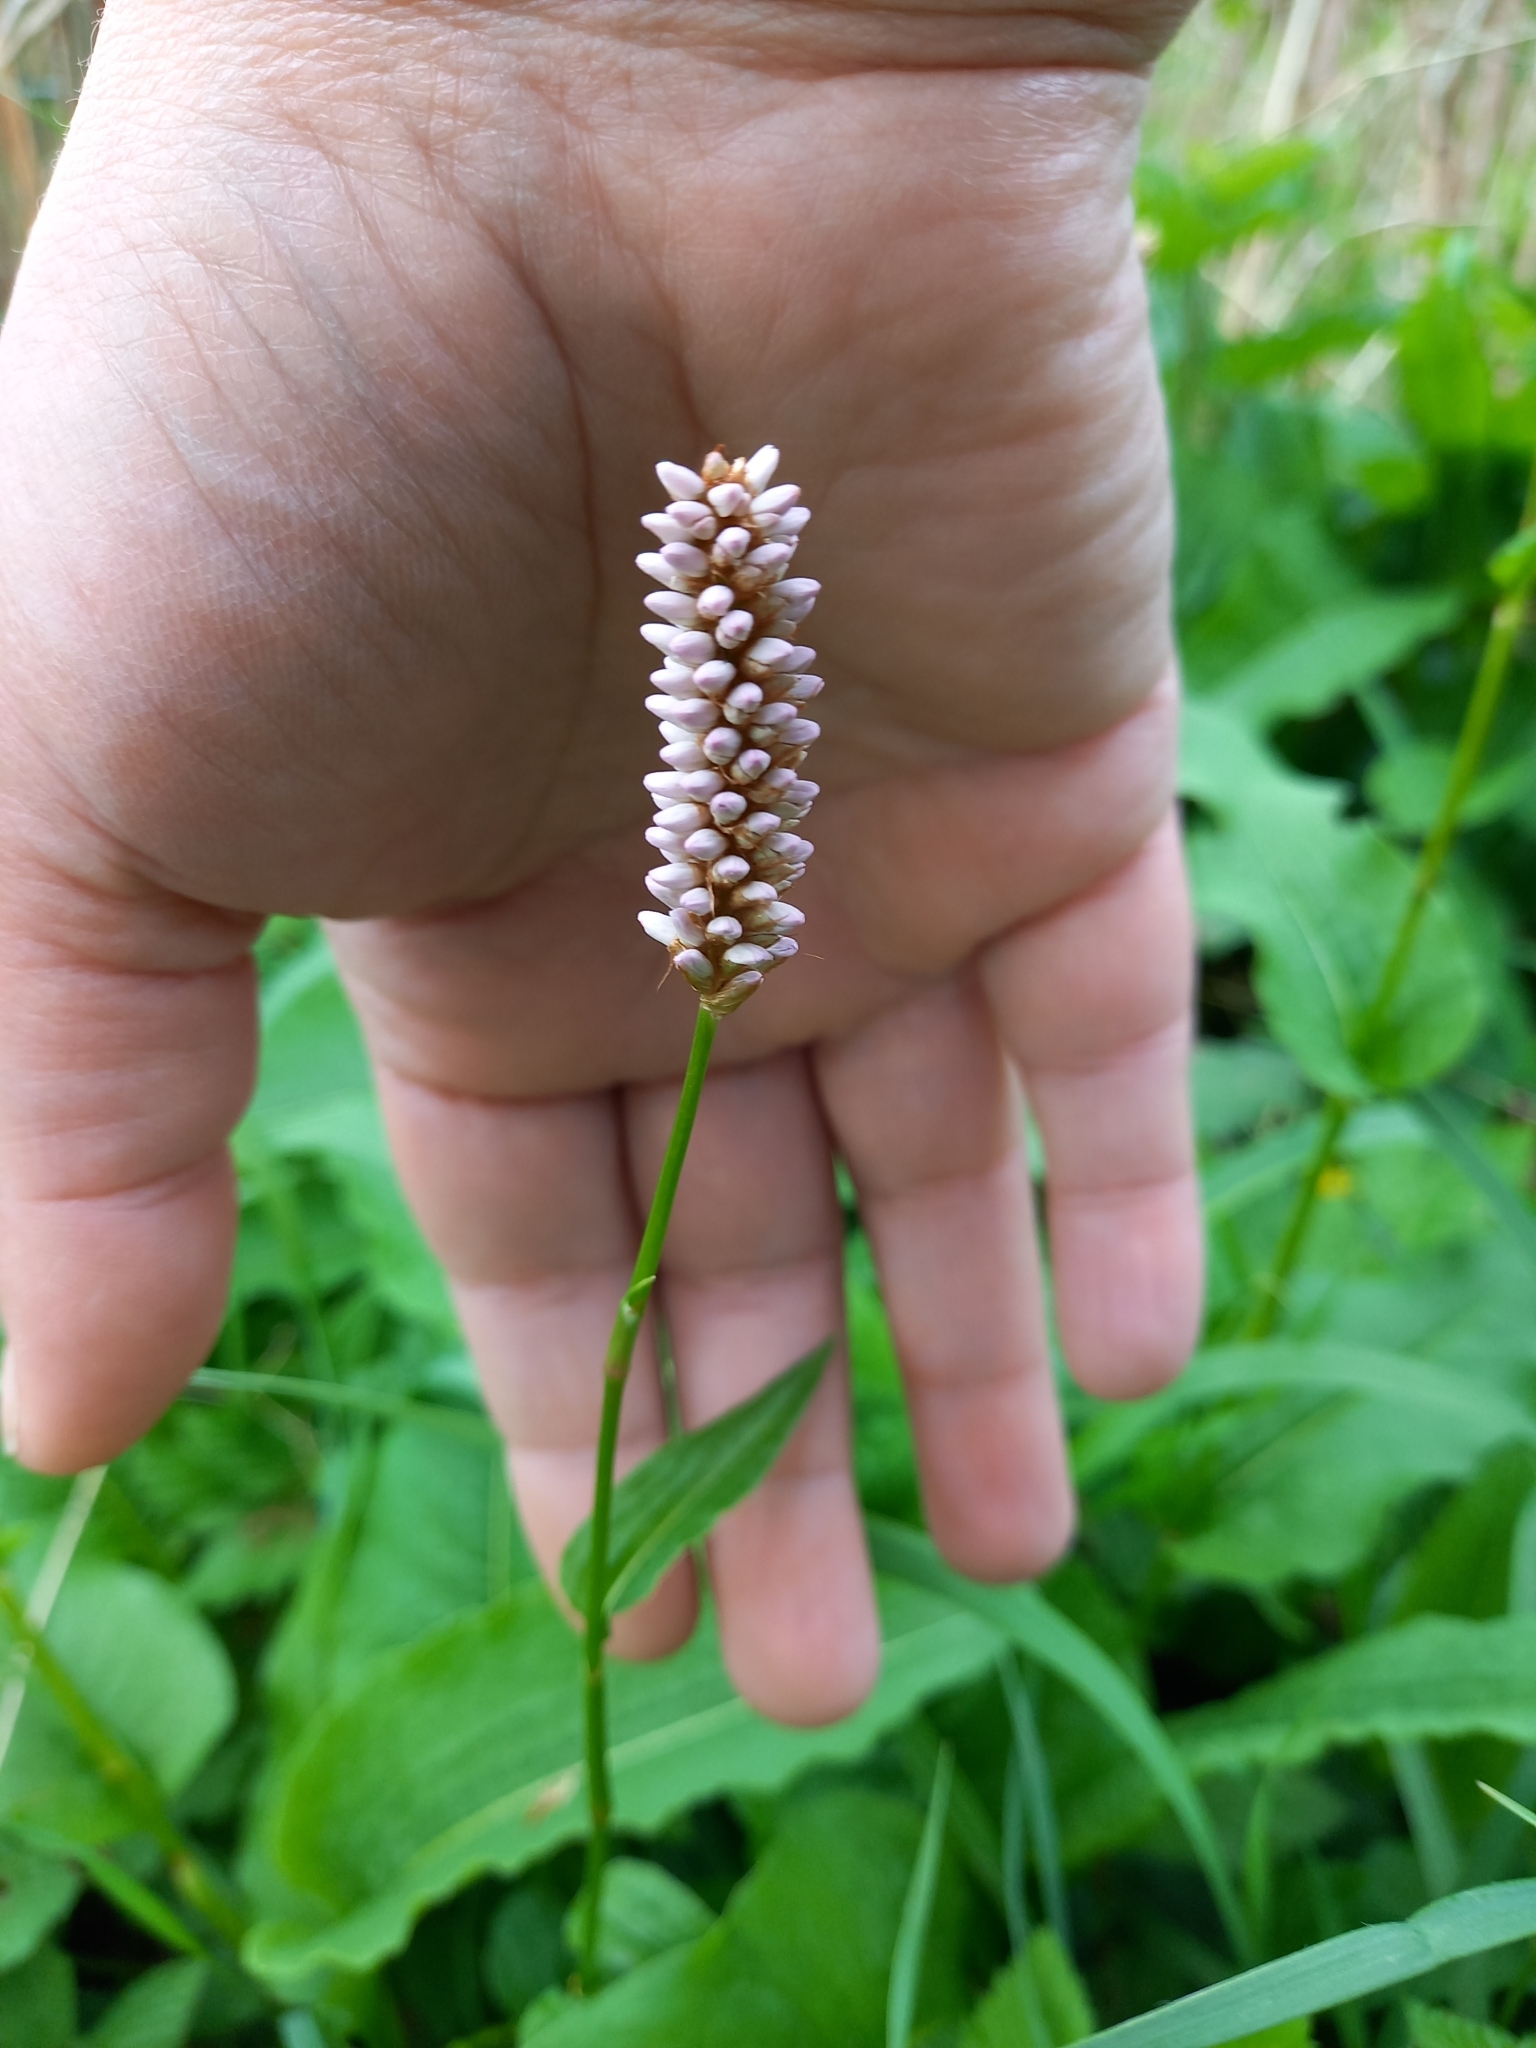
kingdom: Plantae
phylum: Tracheophyta
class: Magnoliopsida
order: Caryophyllales
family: Polygonaceae
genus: Bistorta
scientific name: Bistorta officinalis
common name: Common bistort
